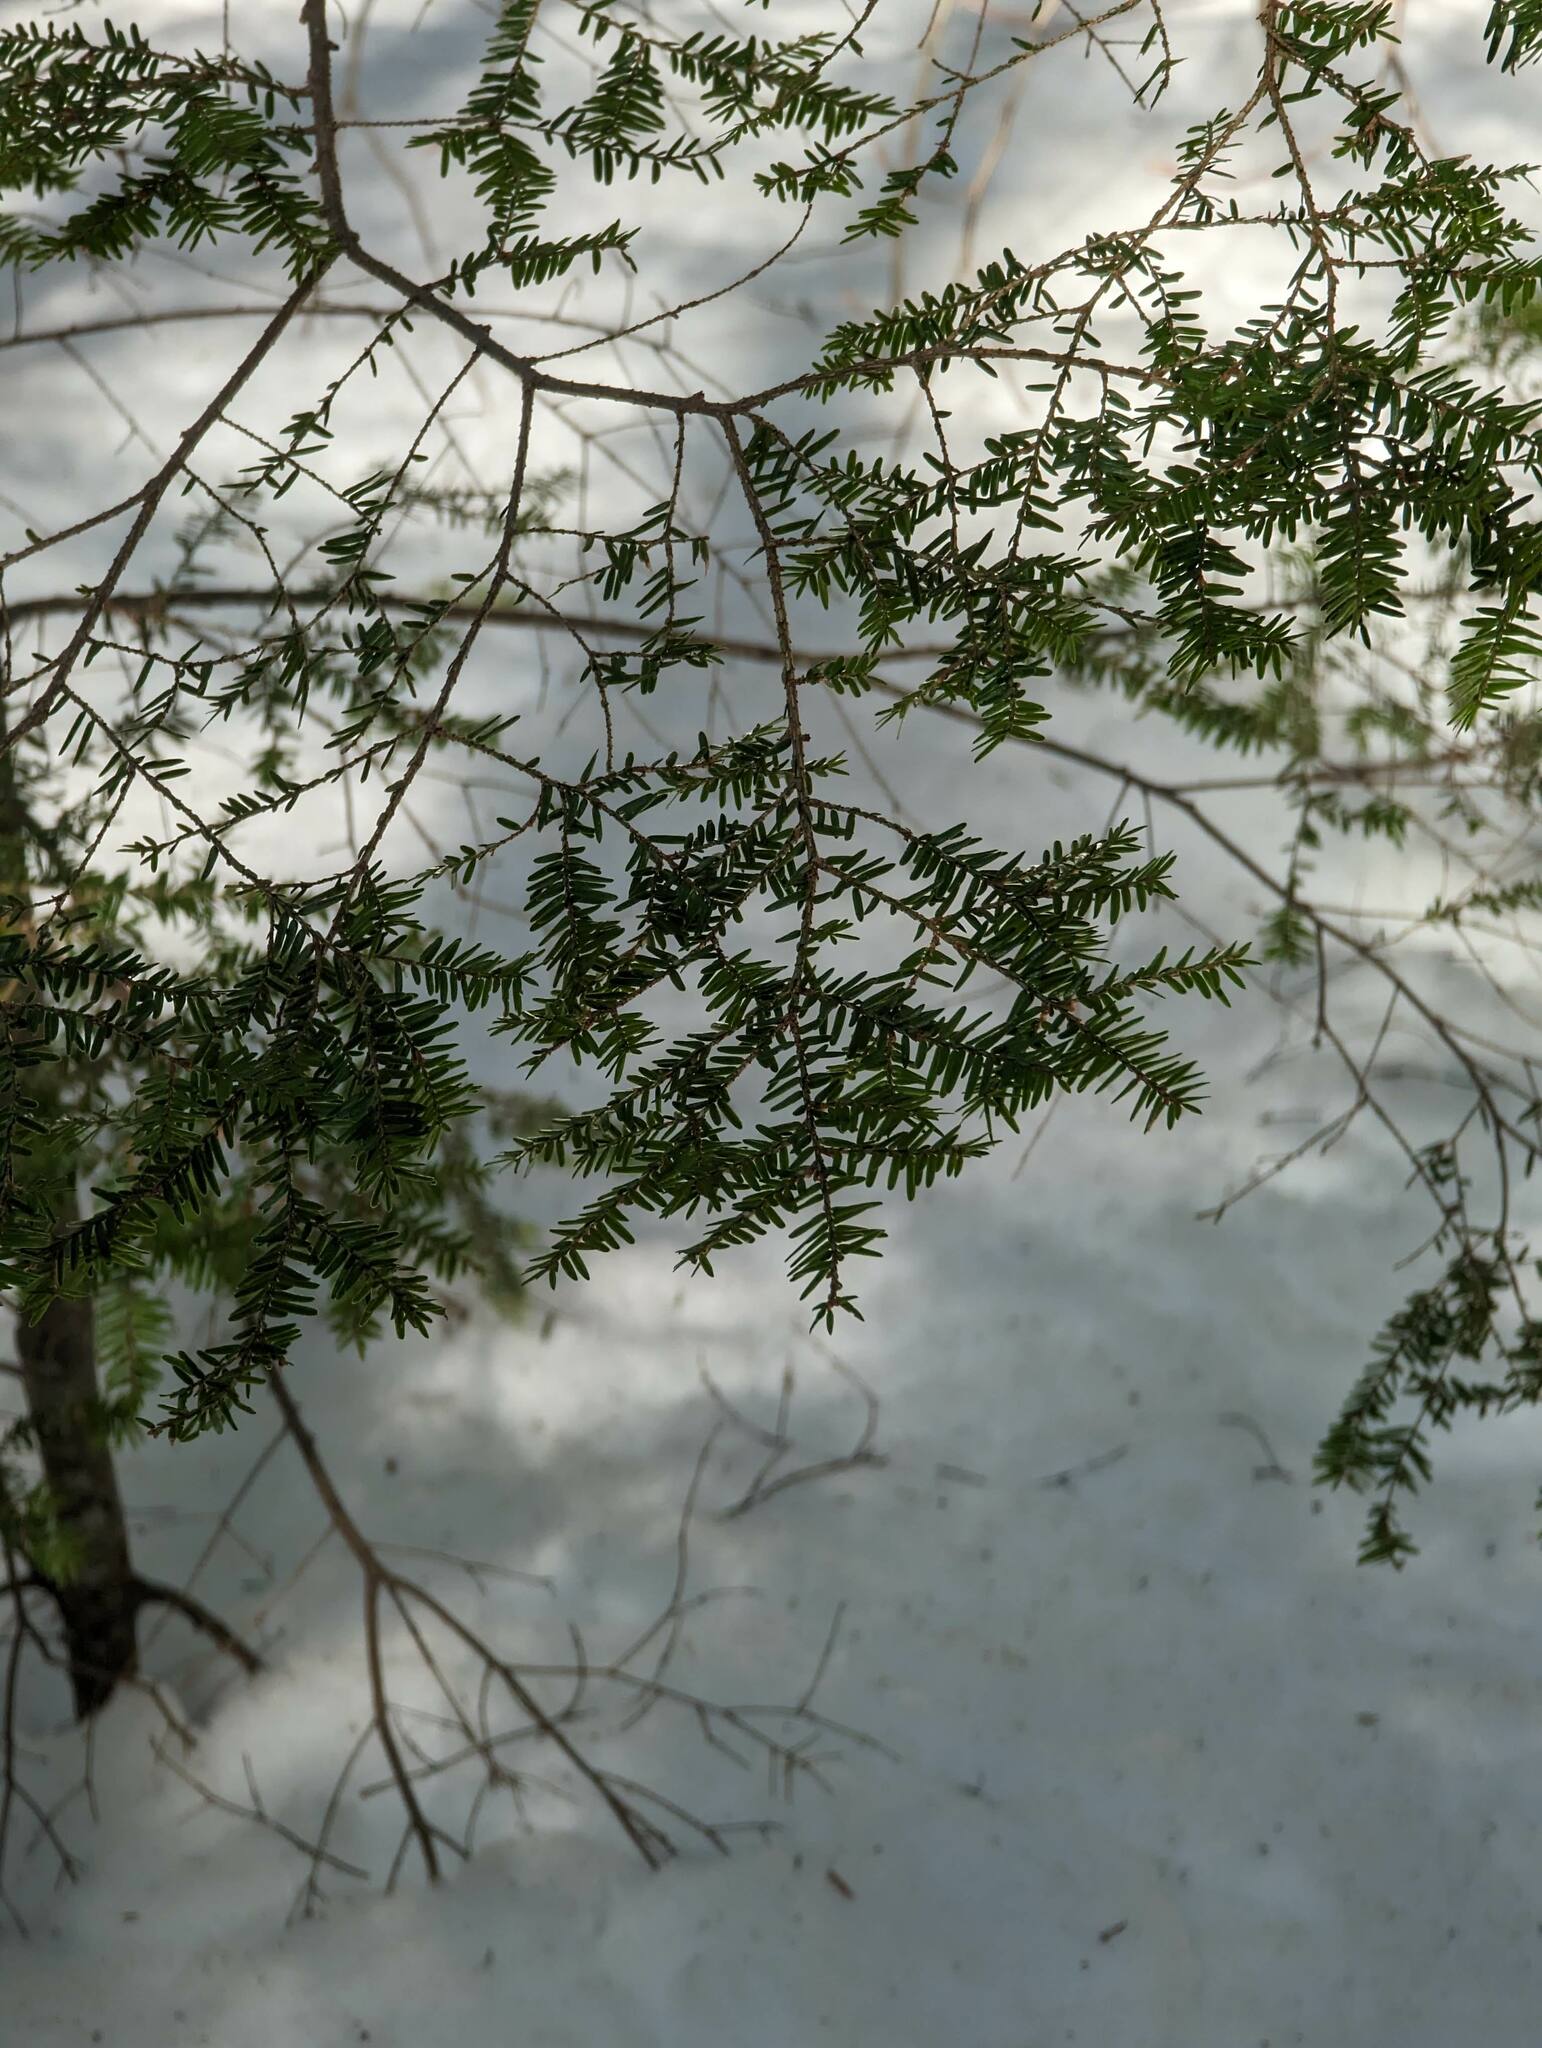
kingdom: Plantae
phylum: Tracheophyta
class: Pinopsida
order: Pinales
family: Pinaceae
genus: Tsuga
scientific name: Tsuga canadensis
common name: Eastern hemlock
